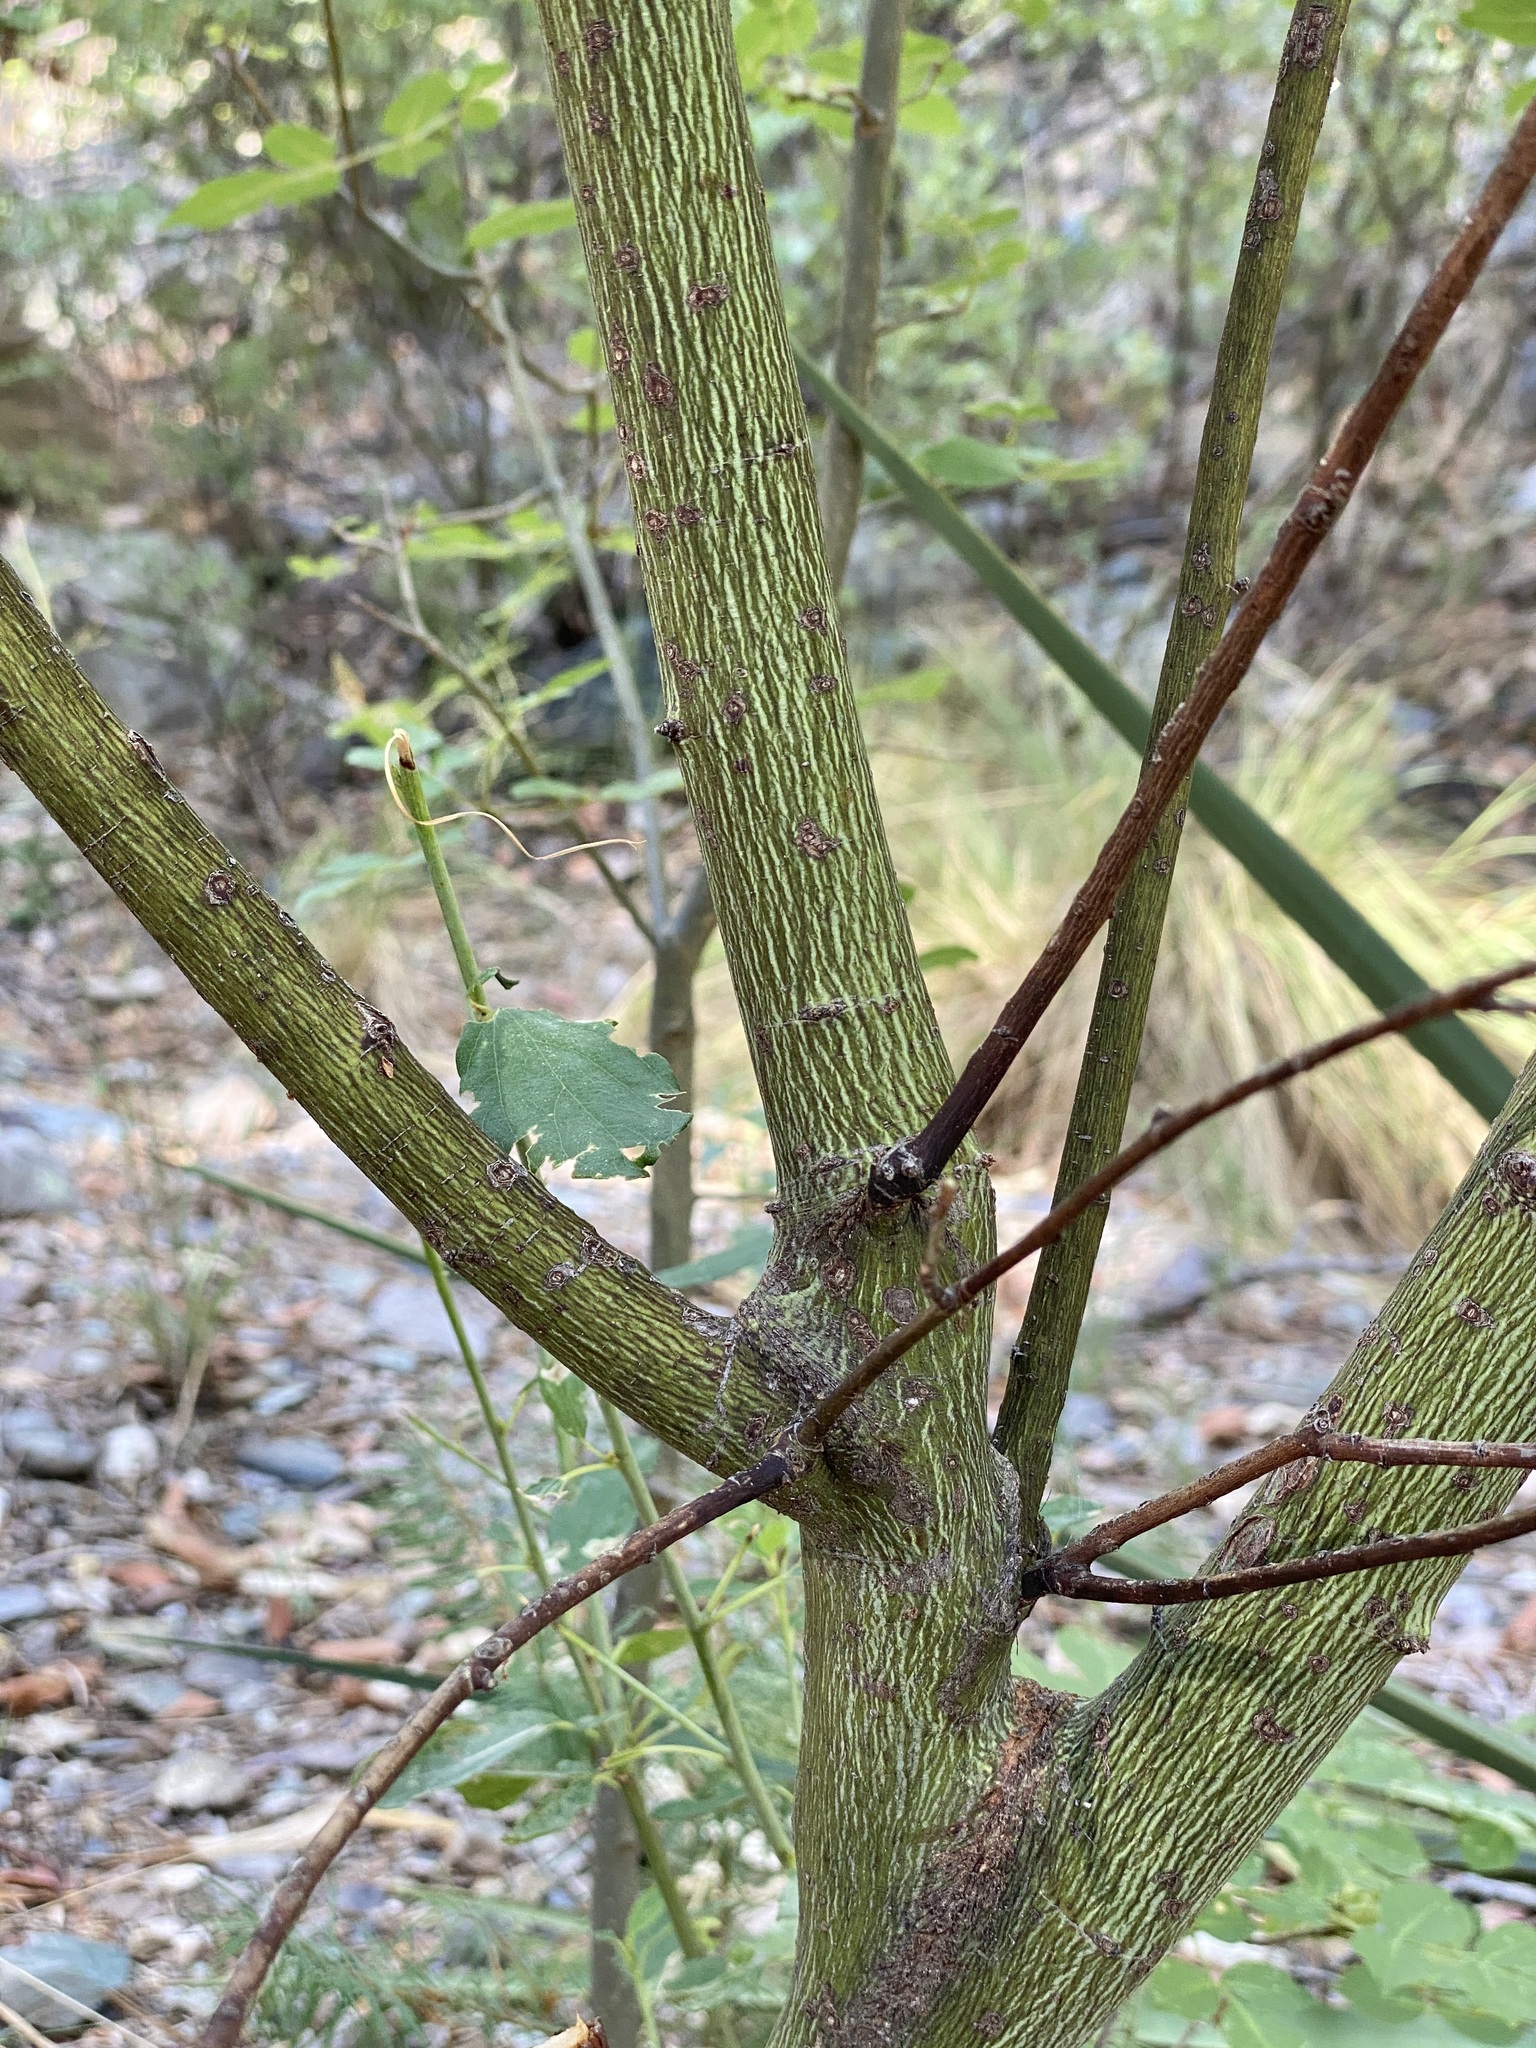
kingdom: Plantae
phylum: Tracheophyta
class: Magnoliopsida
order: Rosales
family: Rhamnaceae
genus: Ceanothus
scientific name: Ceanothus integerrimus
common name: Deerbrush ceanothus
